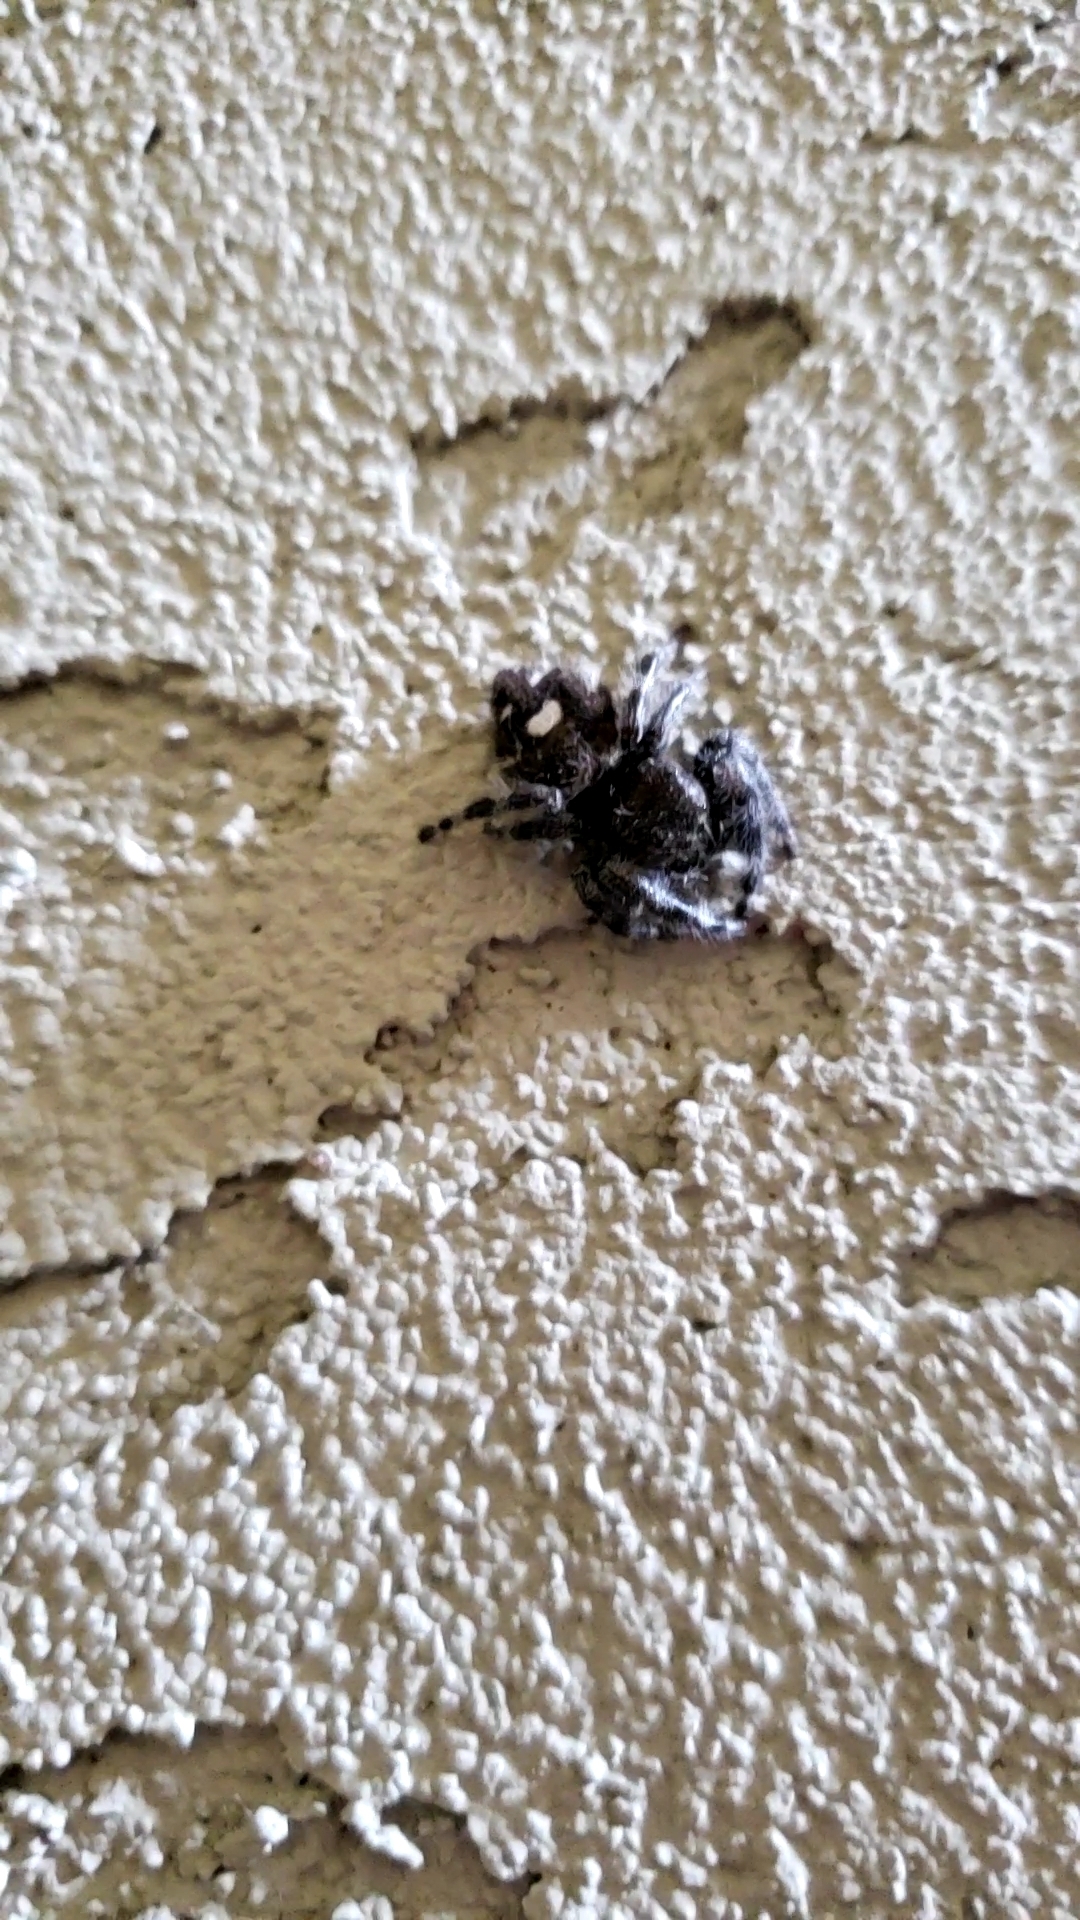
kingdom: Animalia
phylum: Arthropoda
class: Arachnida
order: Araneae
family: Salticidae
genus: Phidippus
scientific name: Phidippus audax
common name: Bold jumper
